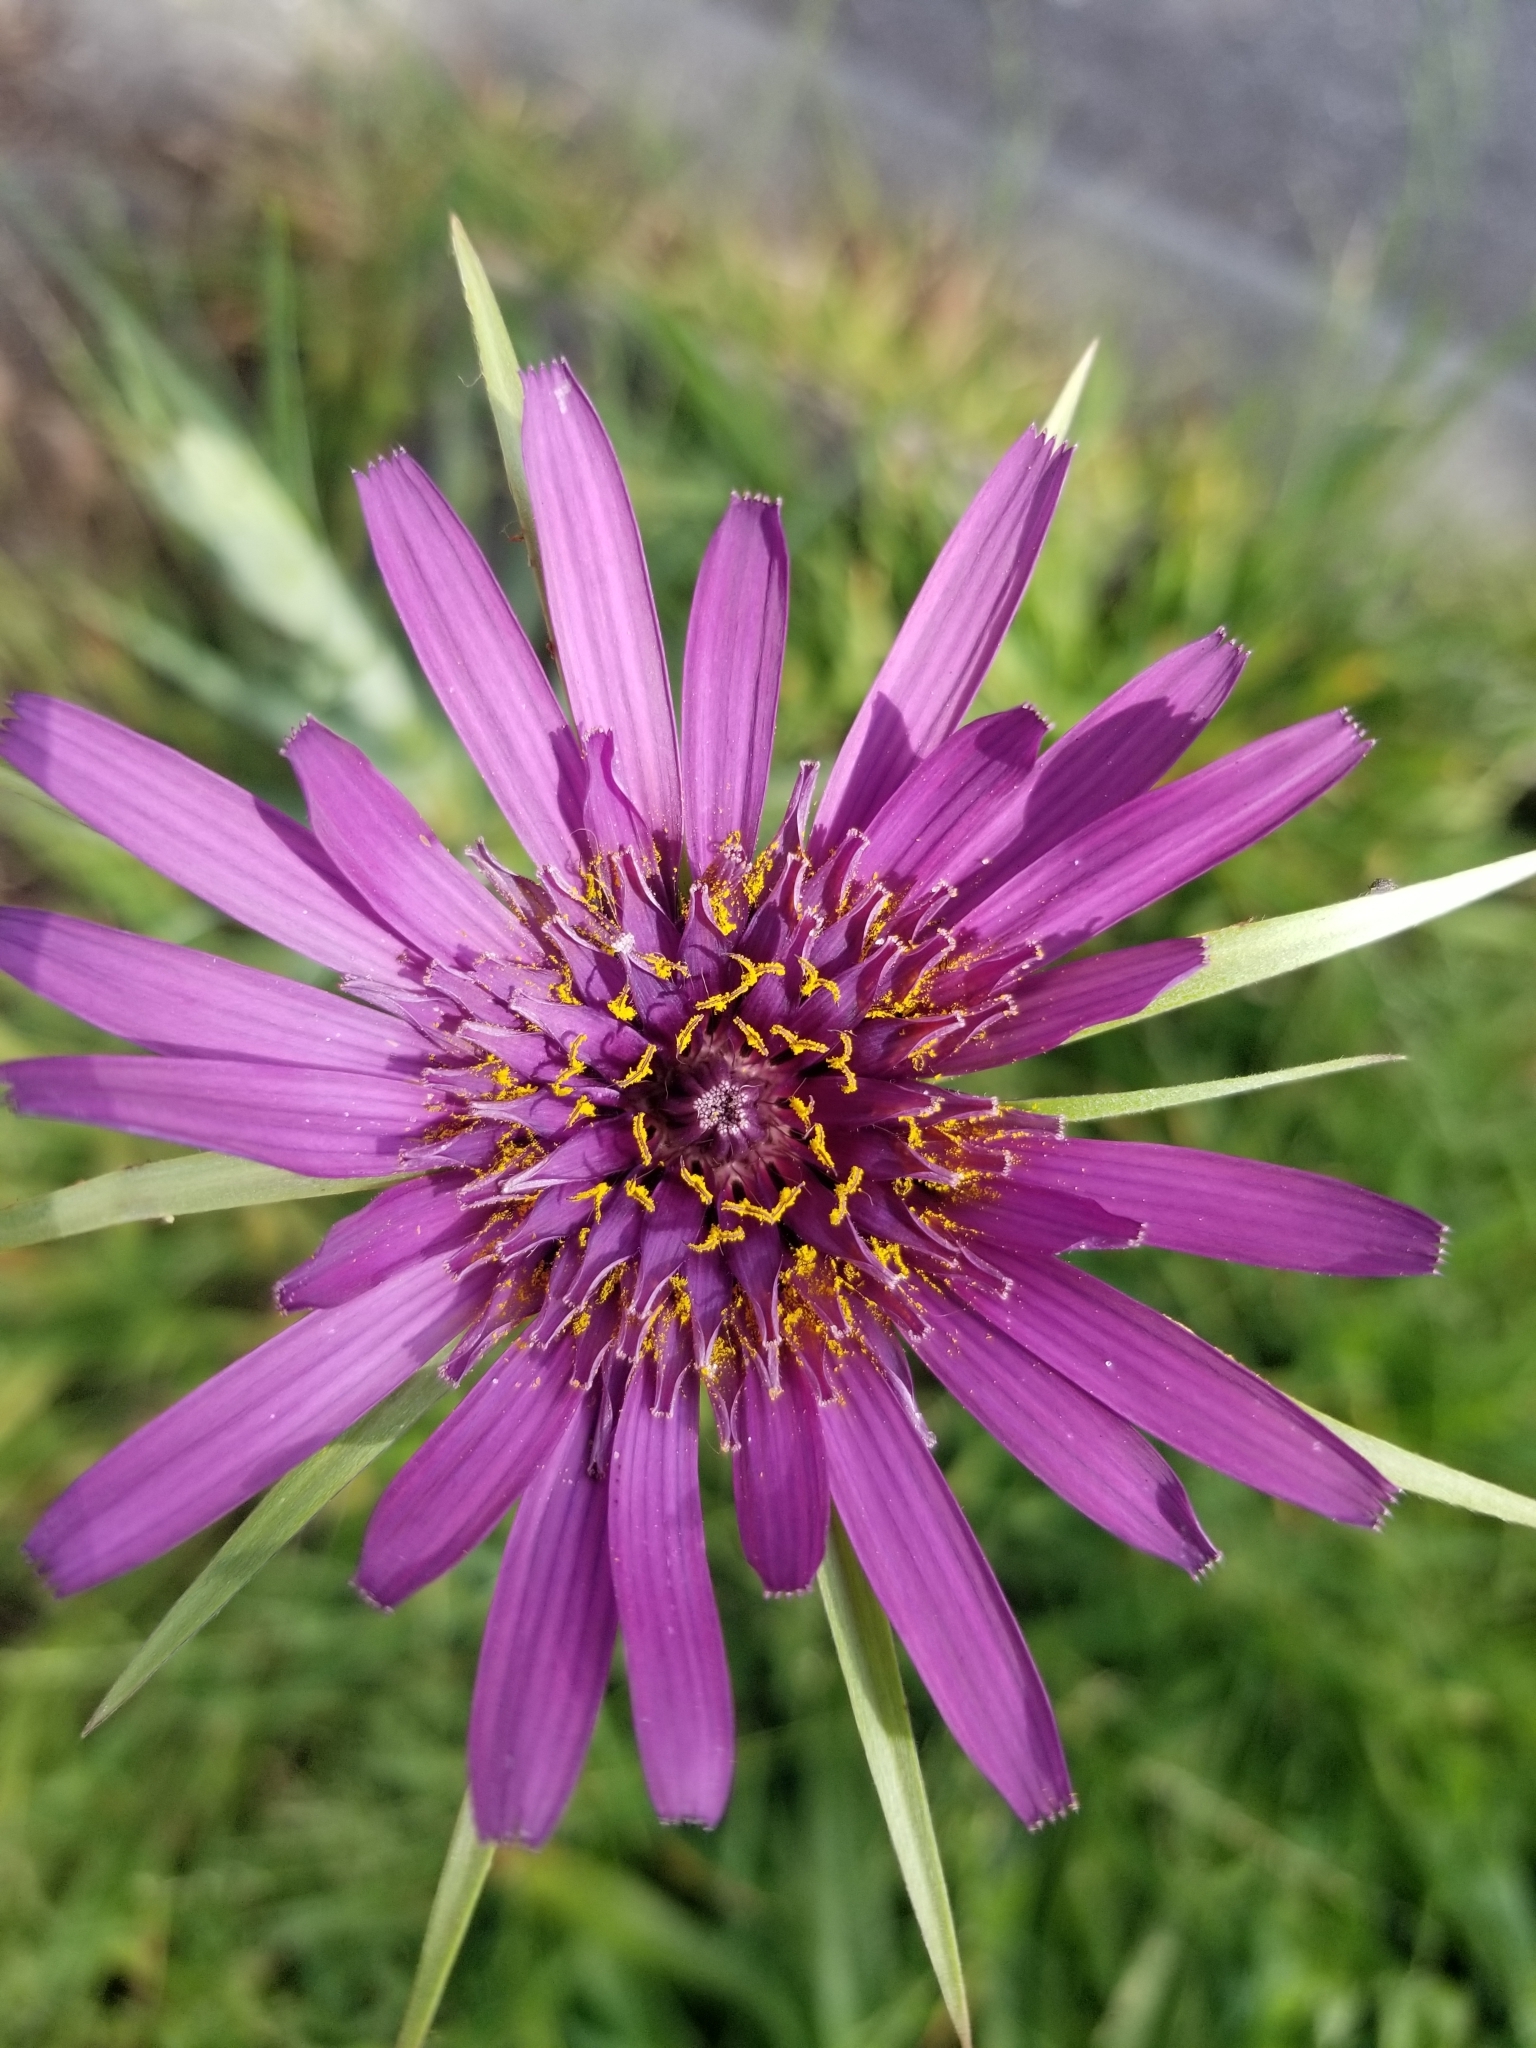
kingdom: Plantae
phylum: Tracheophyta
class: Magnoliopsida
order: Asterales
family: Asteraceae
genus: Tragopogon
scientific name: Tragopogon porrifolius
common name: Salsify
